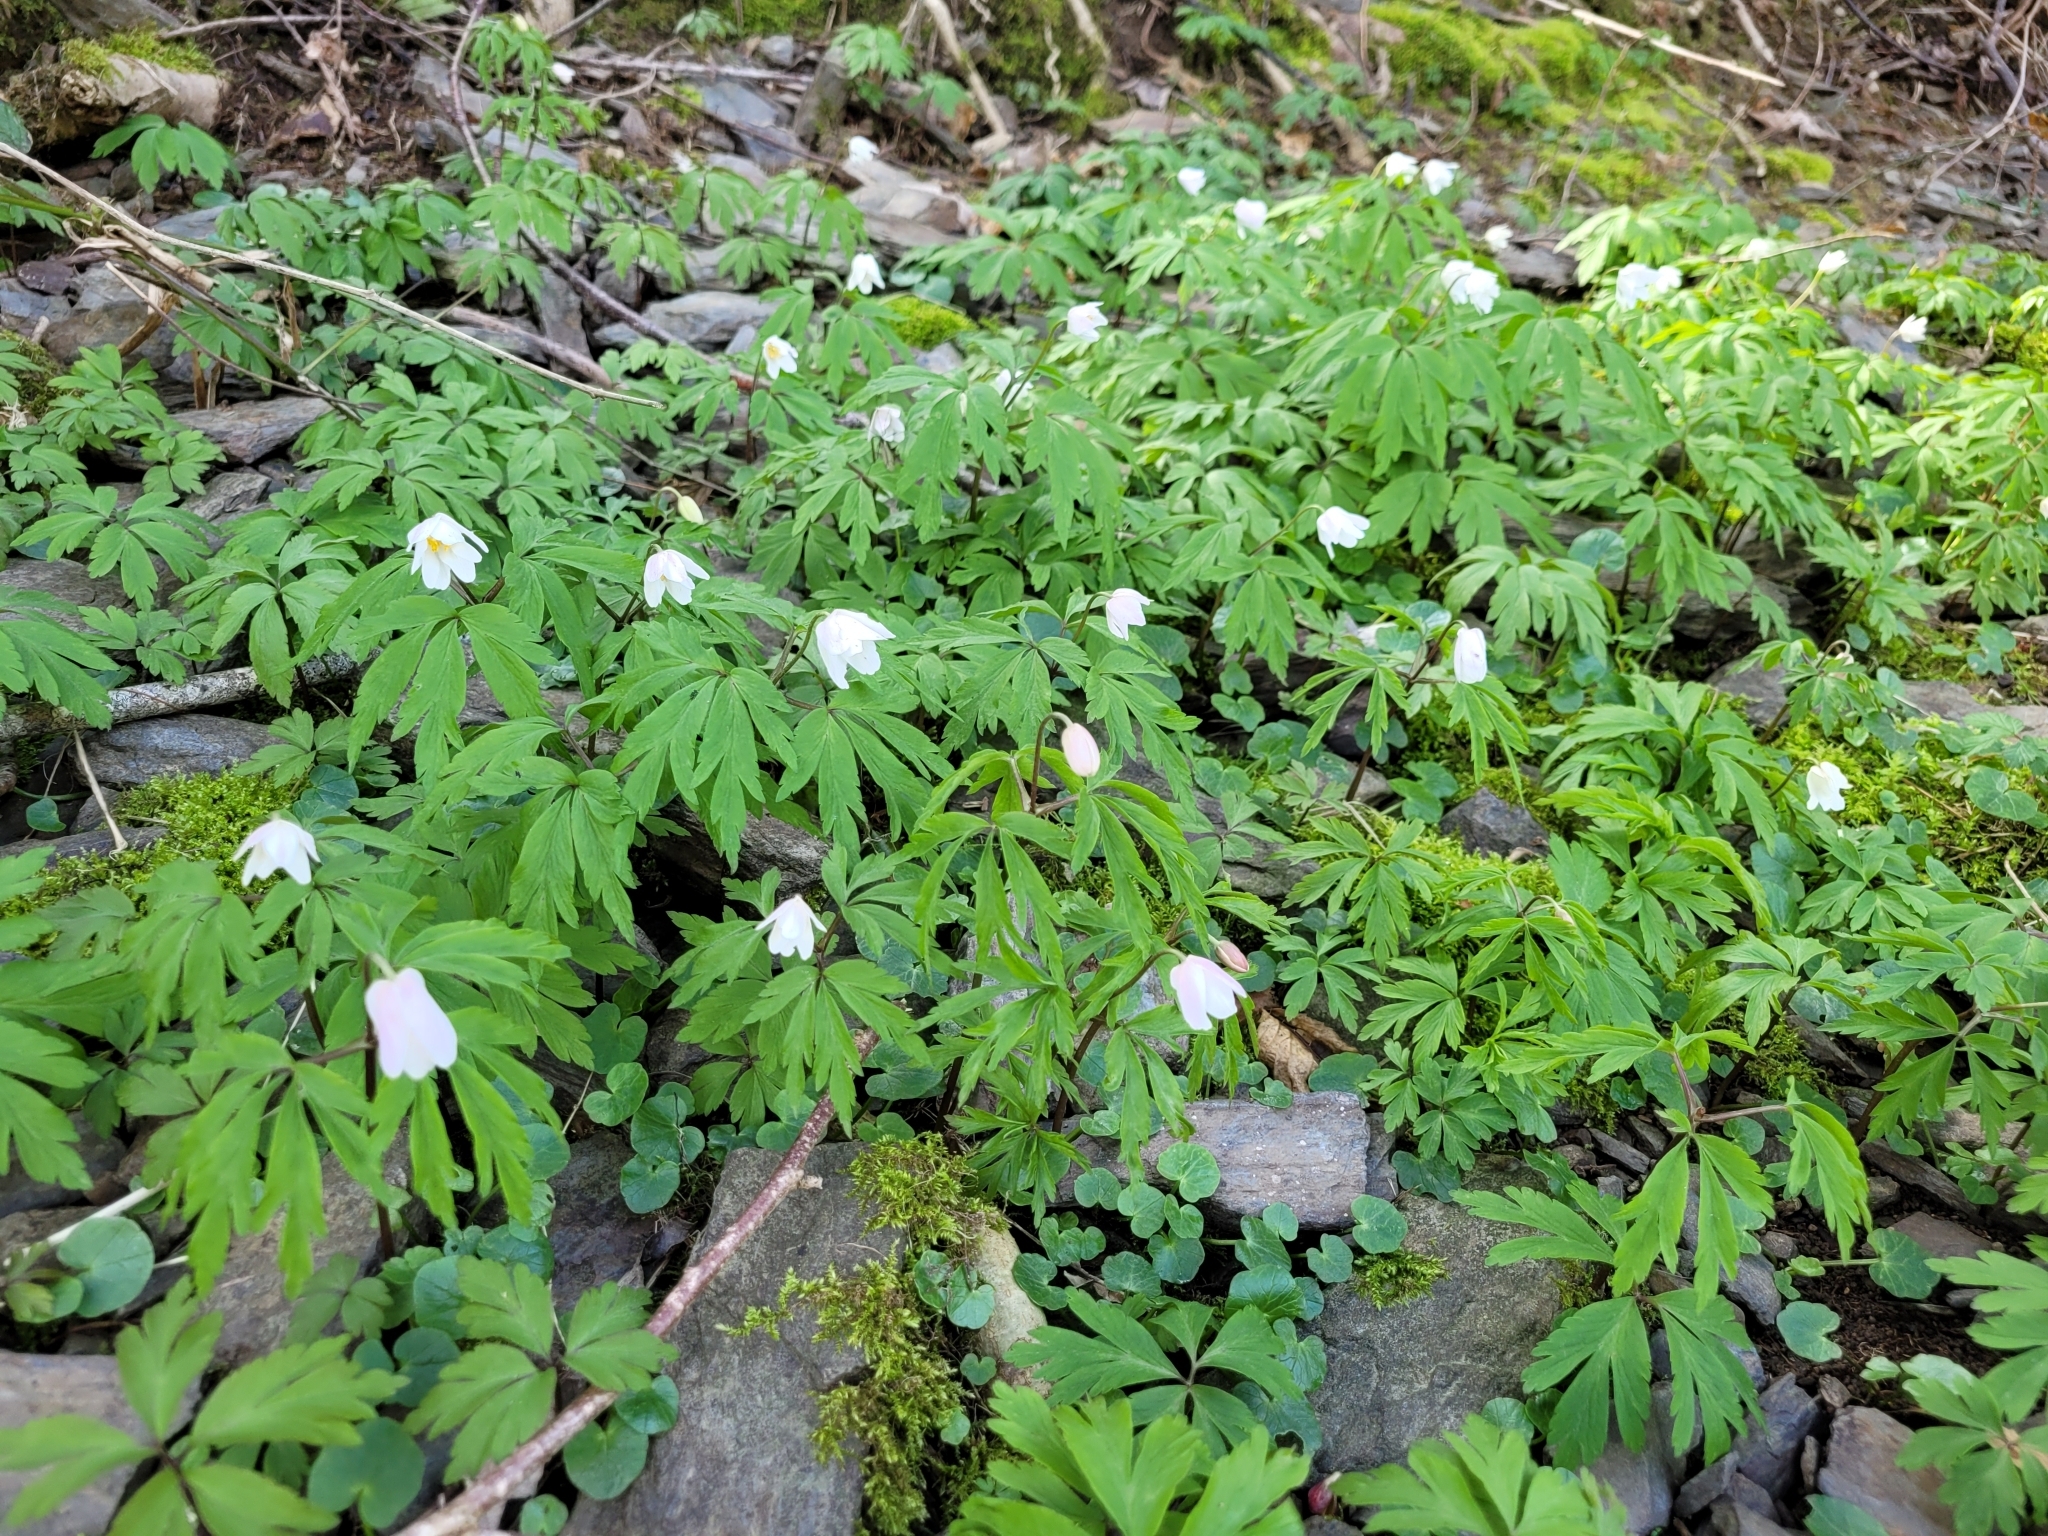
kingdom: Plantae
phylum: Tracheophyta
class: Magnoliopsida
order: Ranunculales
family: Ranunculaceae
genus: Anemone
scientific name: Anemone nemorosa
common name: Wood anemone
